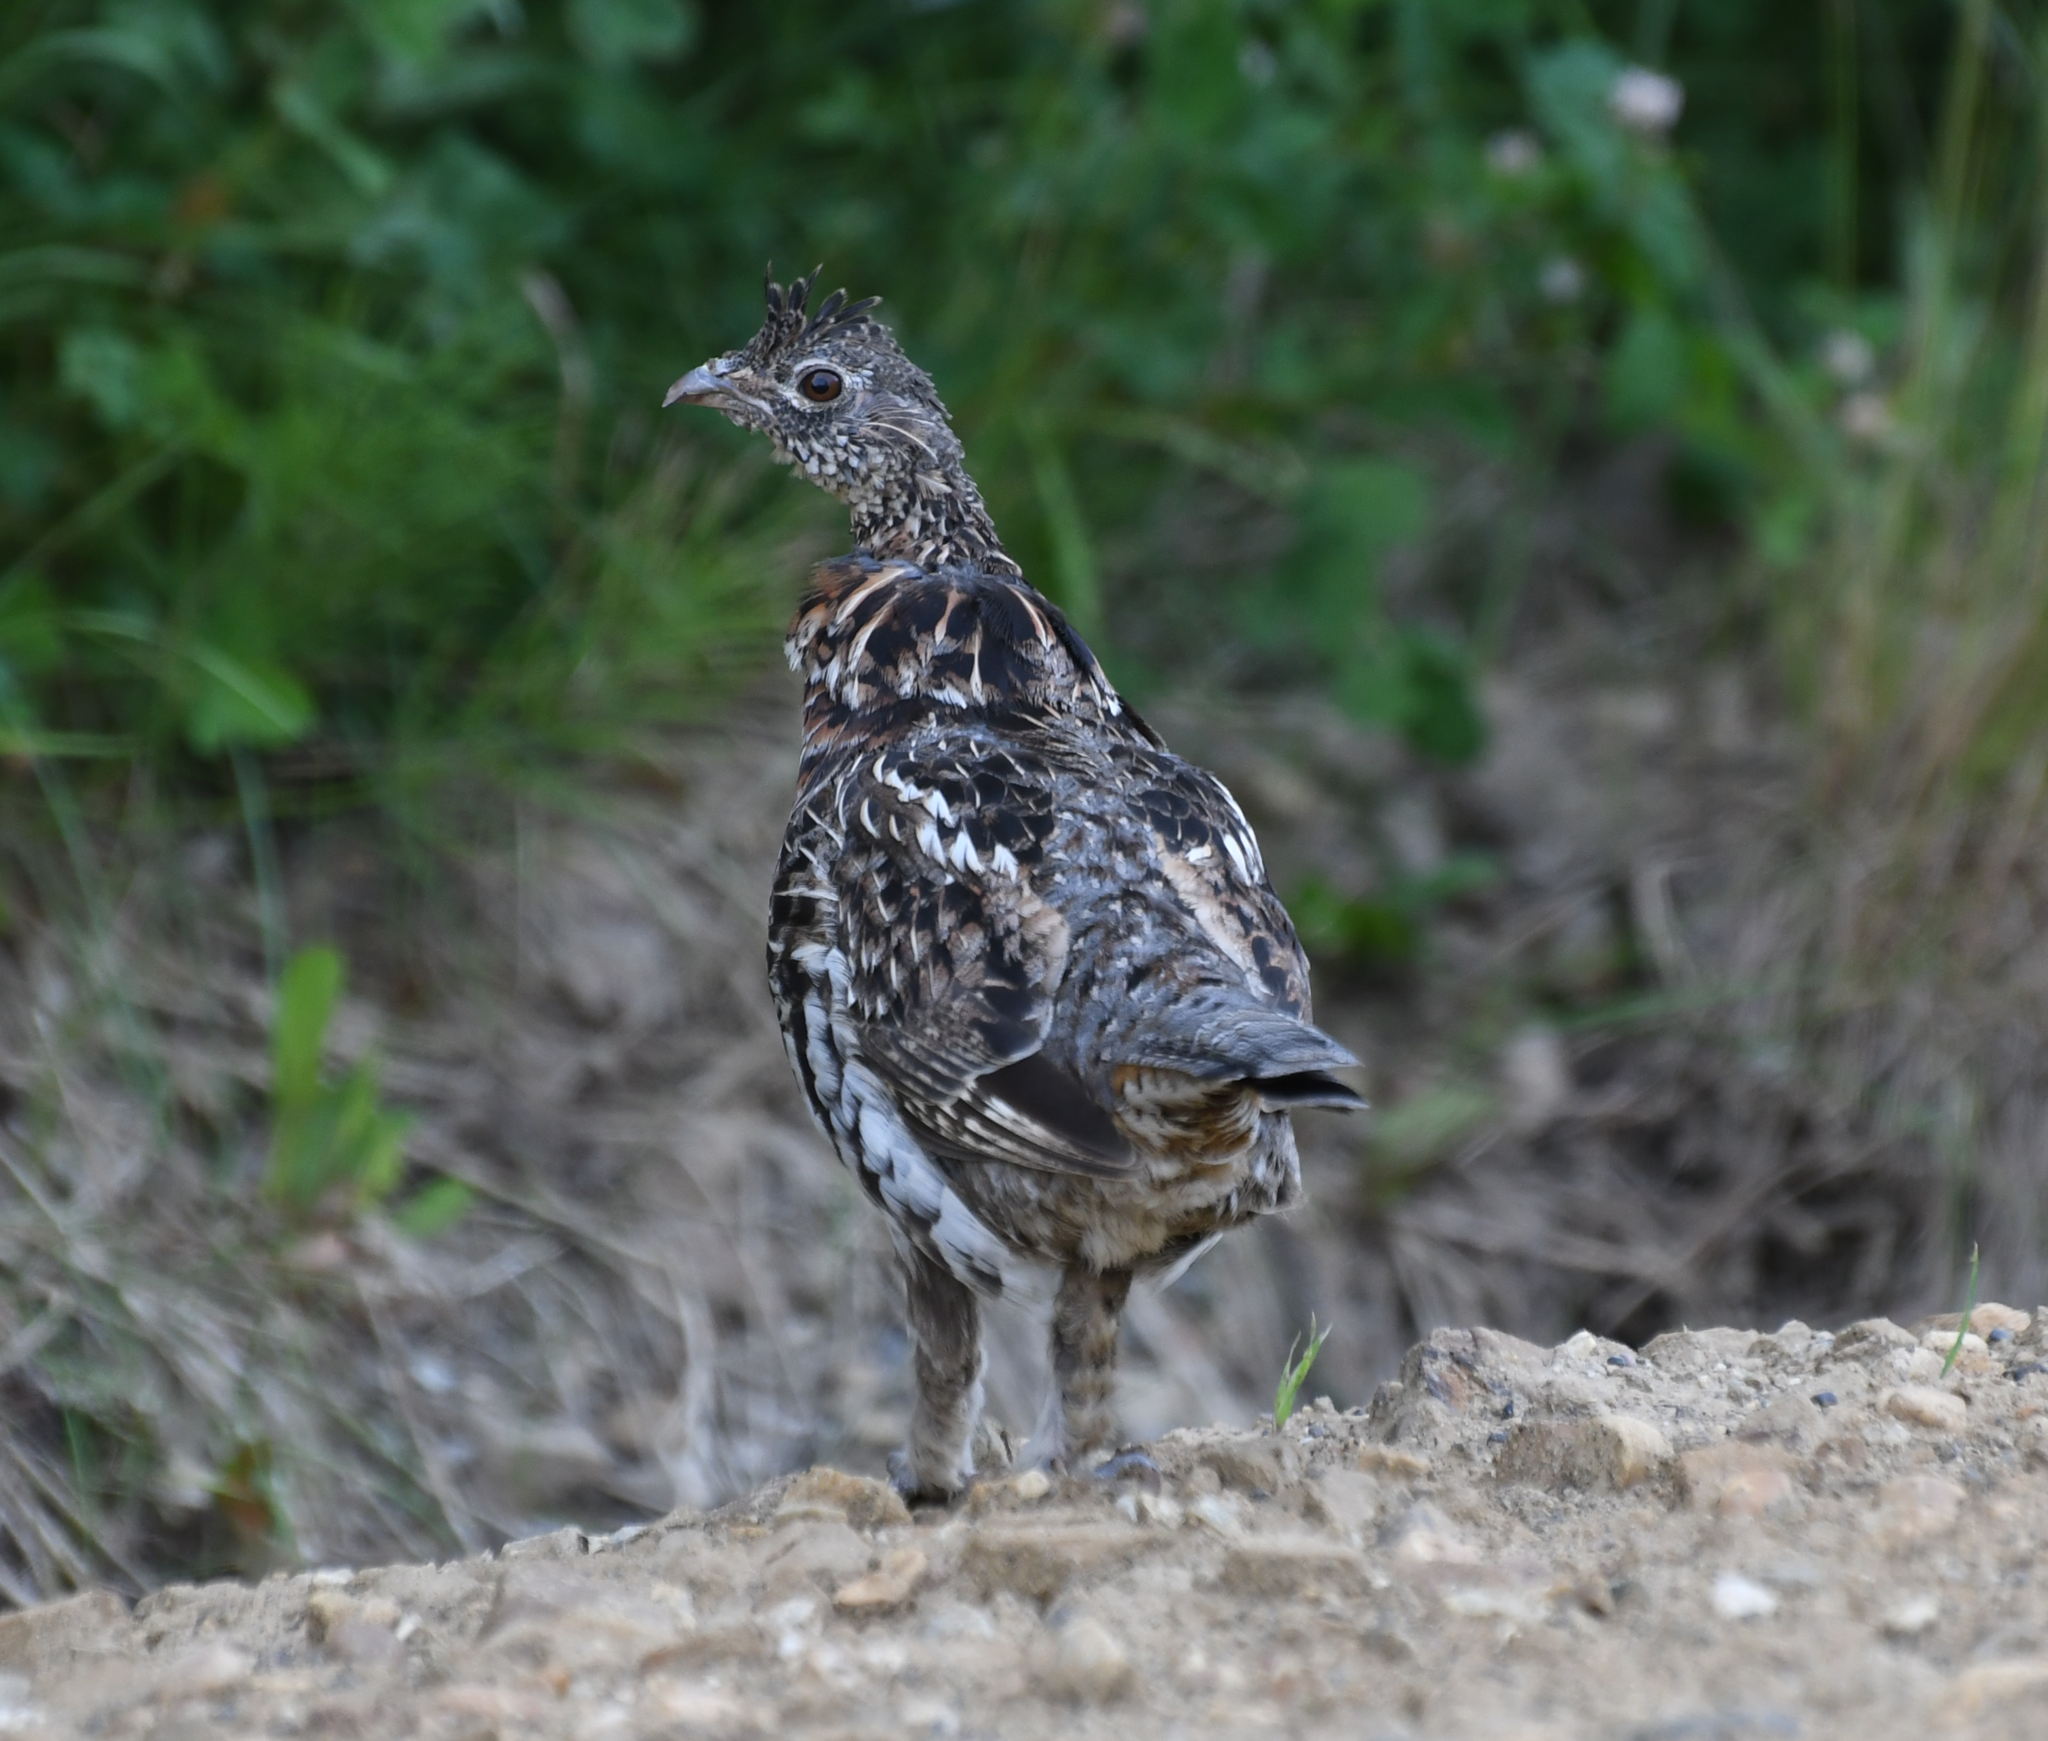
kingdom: Animalia
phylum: Chordata
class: Aves
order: Galliformes
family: Phasianidae
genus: Bonasa
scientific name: Bonasa umbellus
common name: Ruffed grouse
